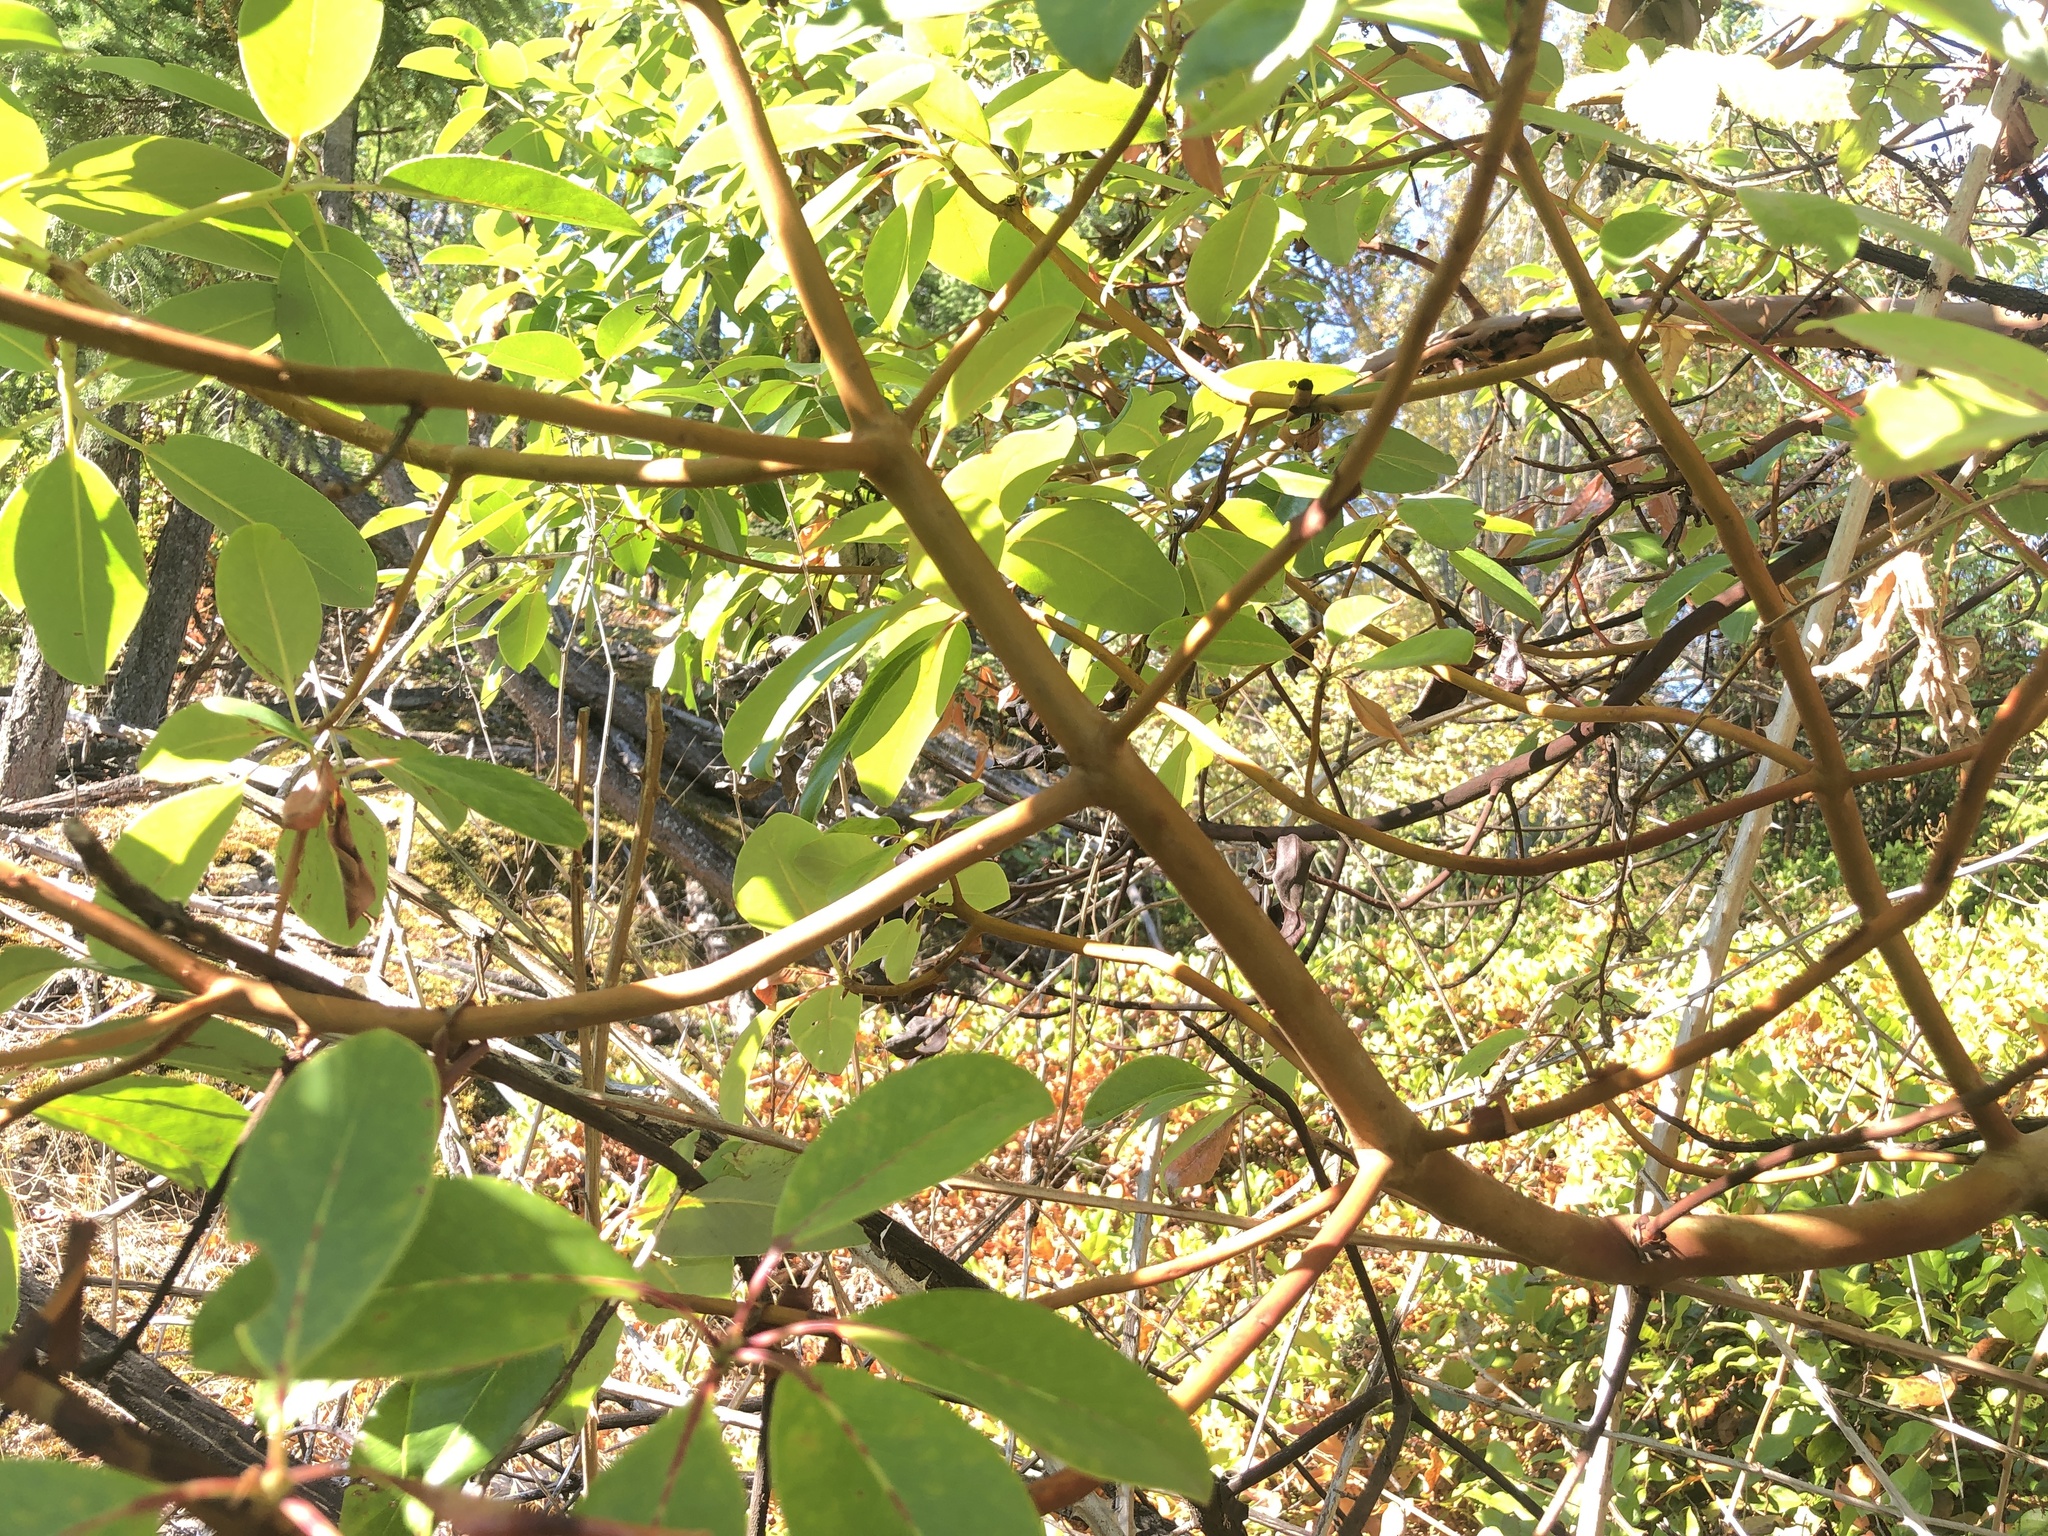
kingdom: Plantae
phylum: Tracheophyta
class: Magnoliopsida
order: Ericales
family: Ericaceae
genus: Arbutus
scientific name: Arbutus menziesii
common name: Pacific madrone
